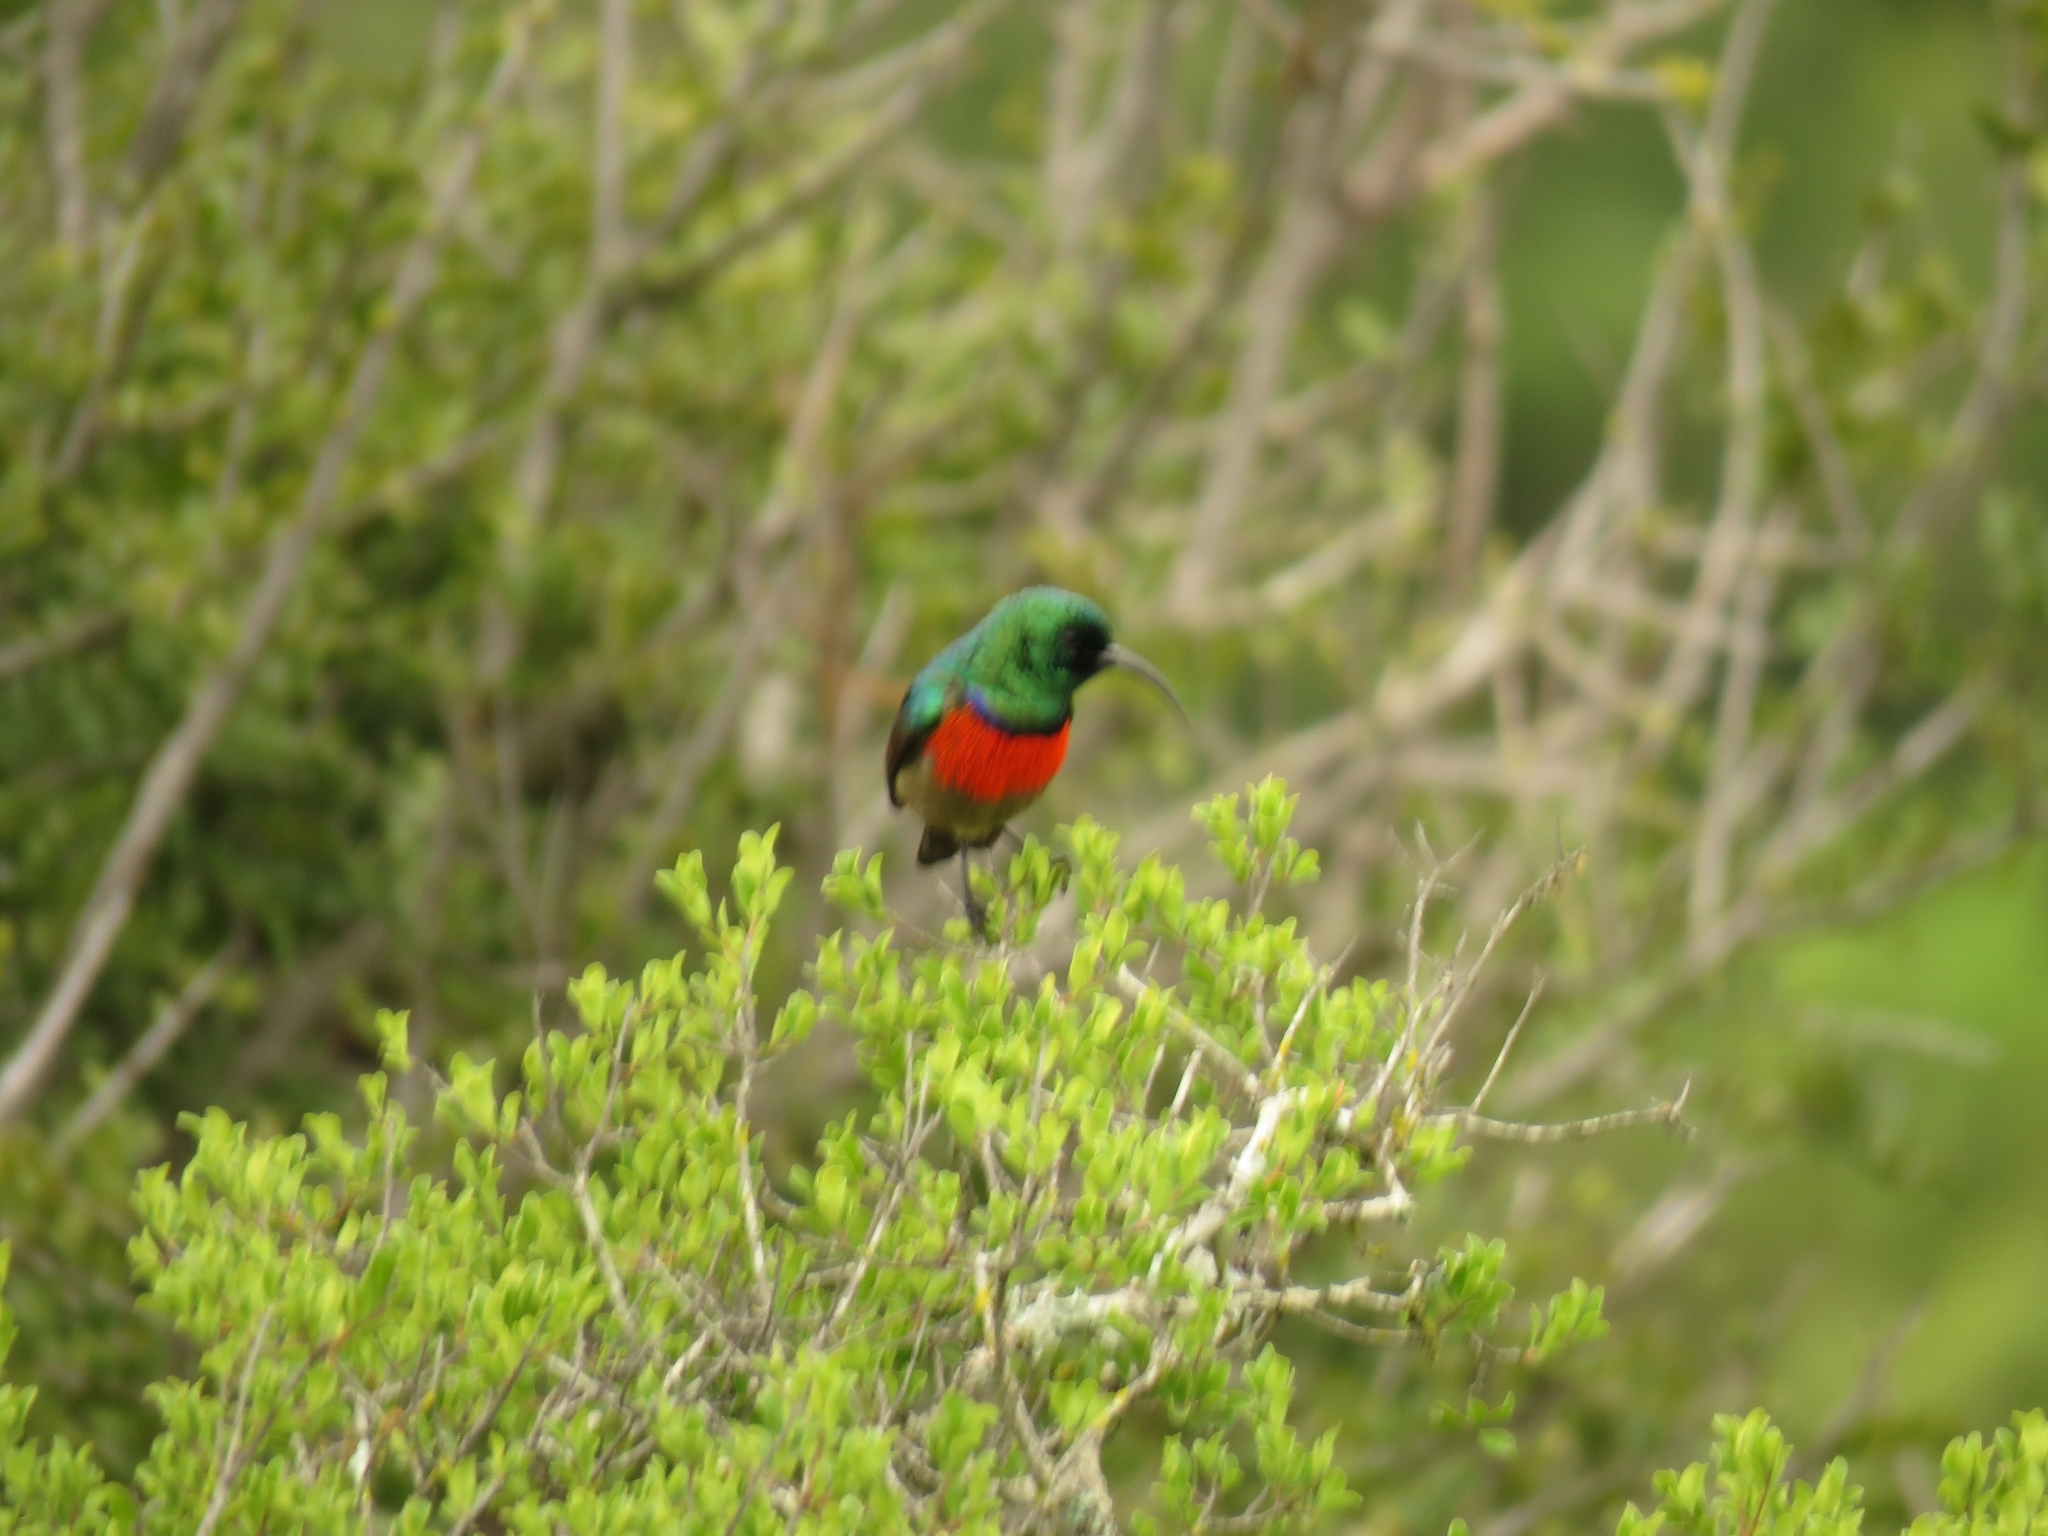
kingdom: Animalia
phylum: Chordata
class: Aves
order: Passeriformes
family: Nectariniidae
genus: Cinnyris
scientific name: Cinnyris afer
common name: Greater double-collared sunbird
